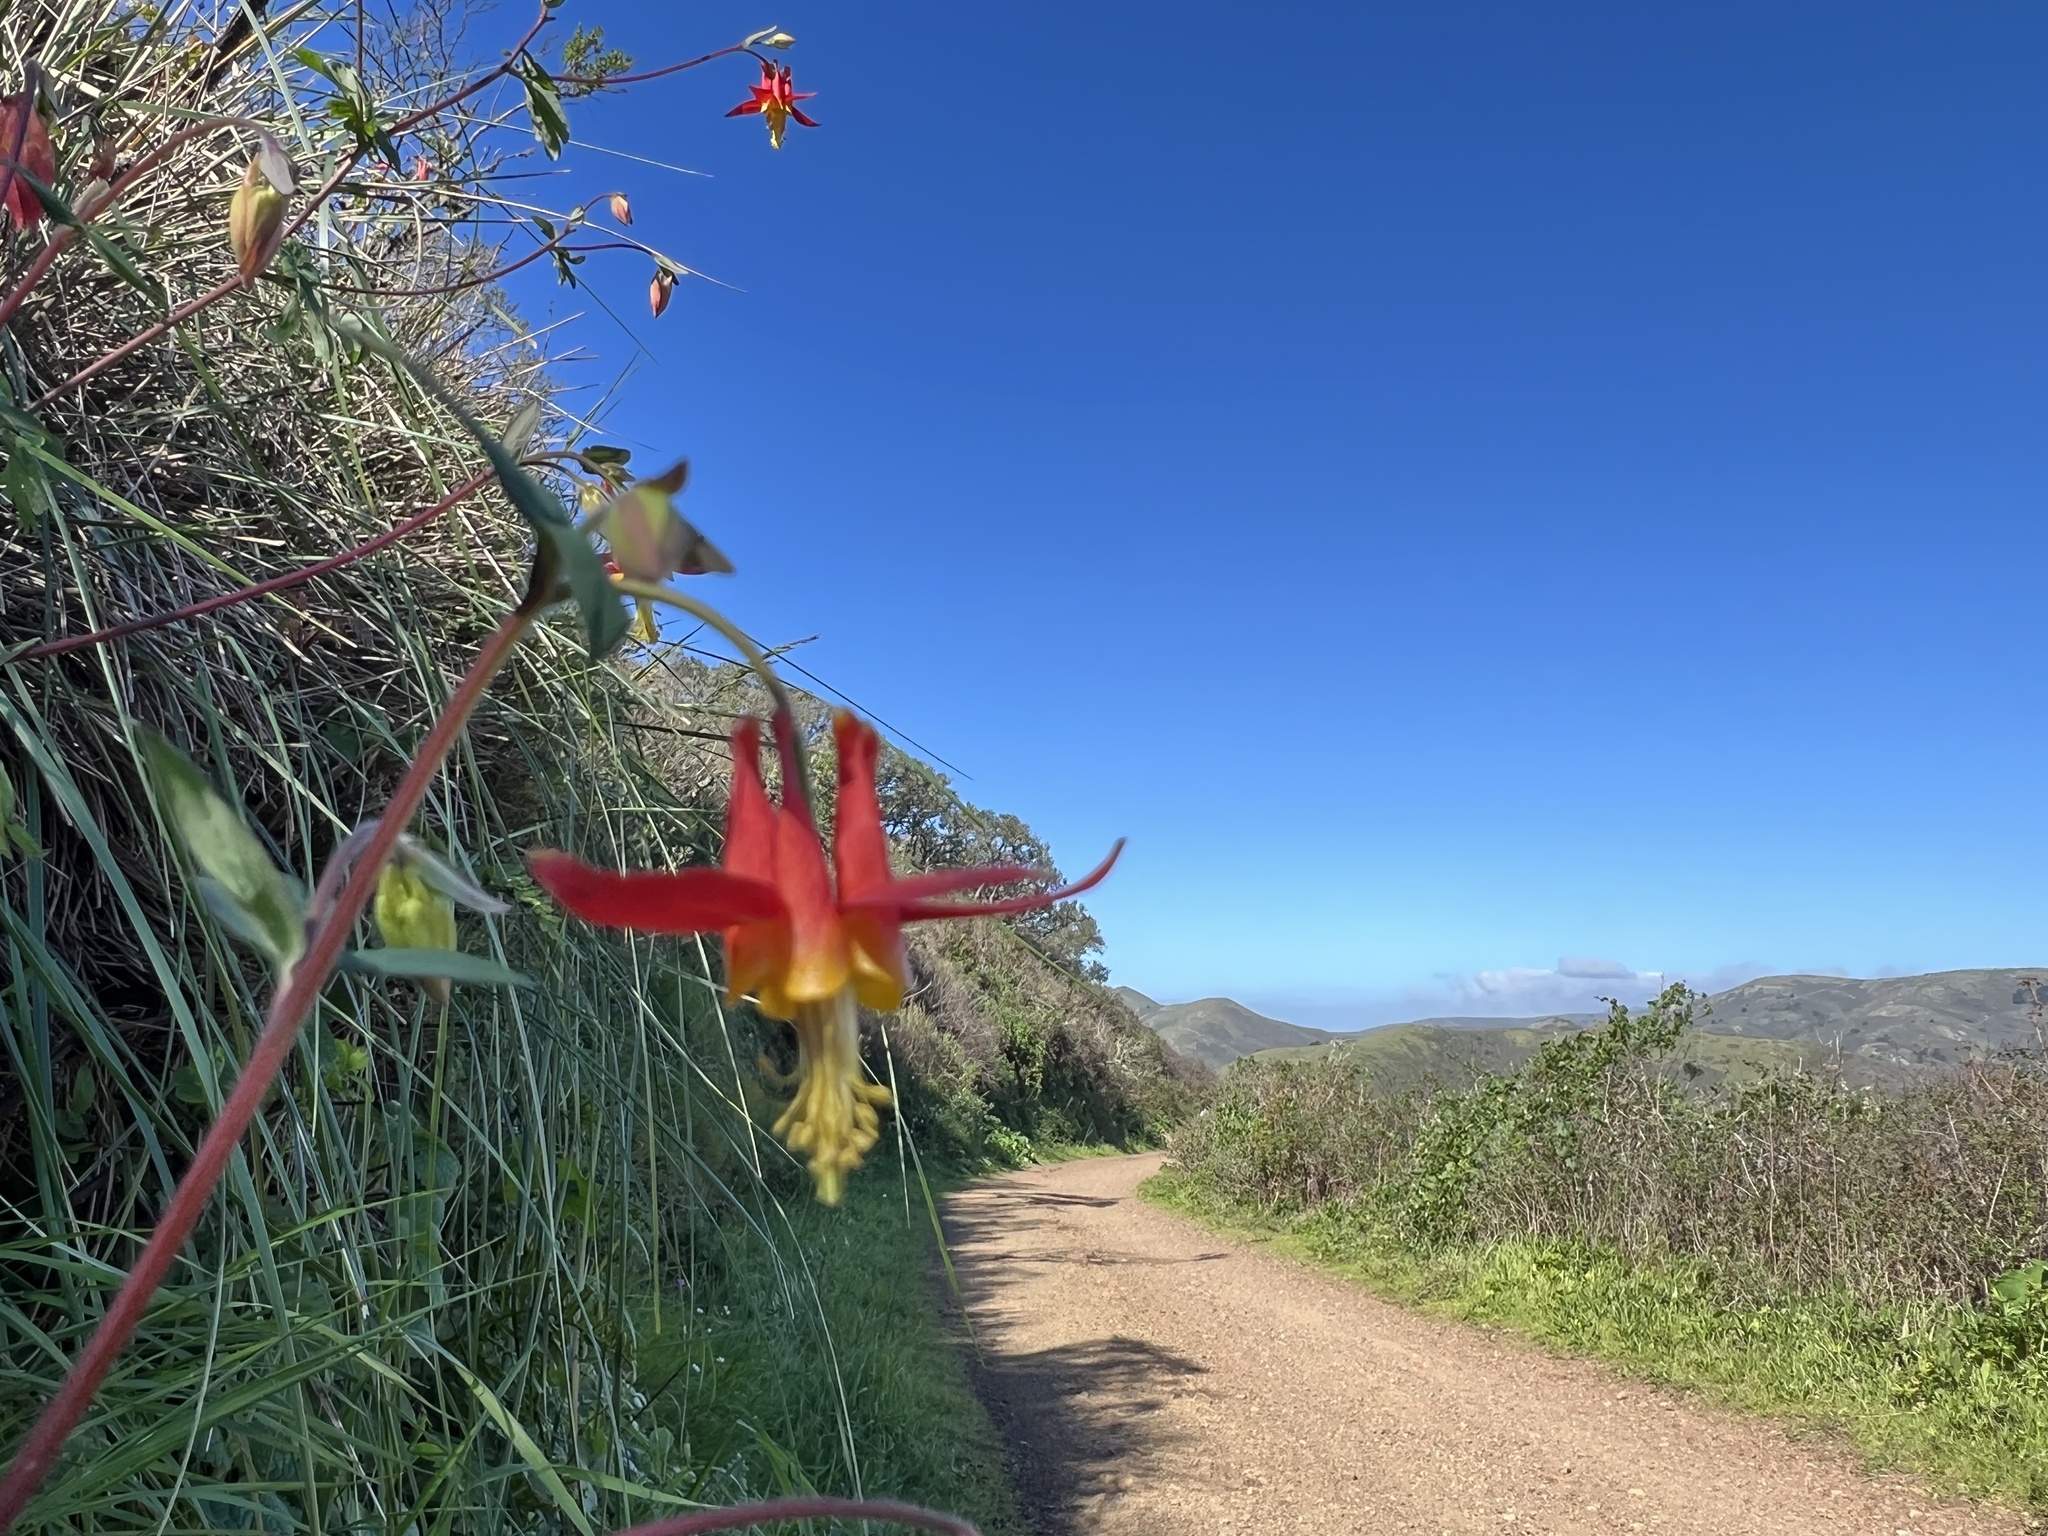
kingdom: Plantae
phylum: Tracheophyta
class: Magnoliopsida
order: Ranunculales
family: Ranunculaceae
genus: Aquilegia
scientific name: Aquilegia formosa
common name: Sitka columbine
